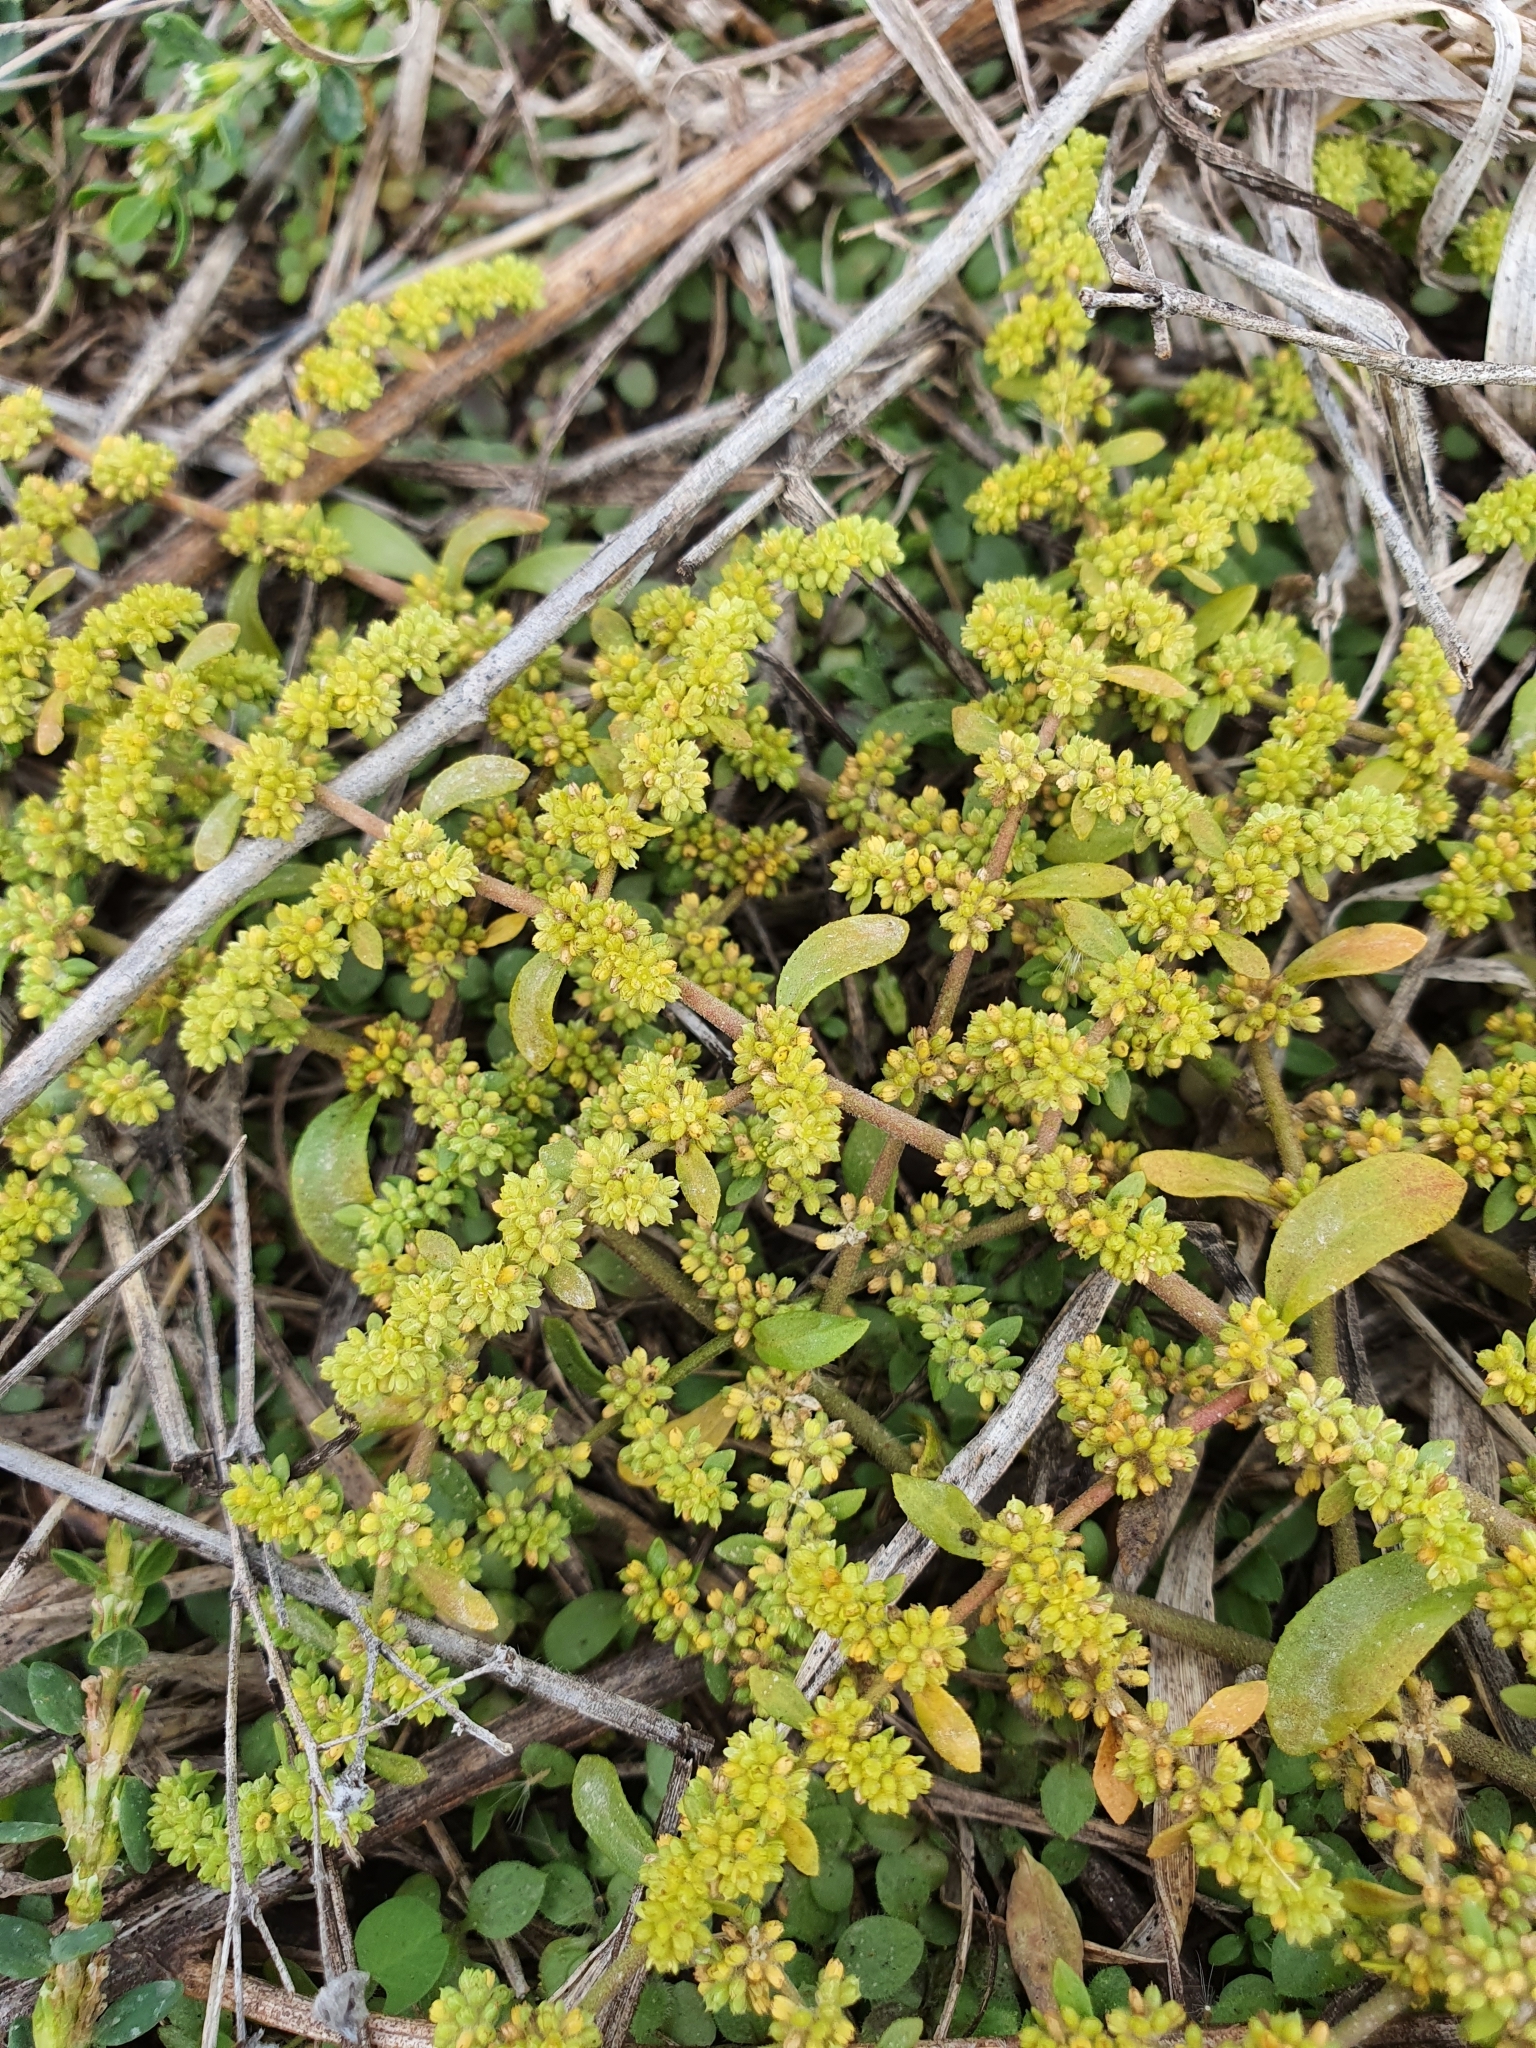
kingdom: Plantae
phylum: Tracheophyta
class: Magnoliopsida
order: Caryophyllales
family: Caryophyllaceae
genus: Herniaria
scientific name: Herniaria polygama
